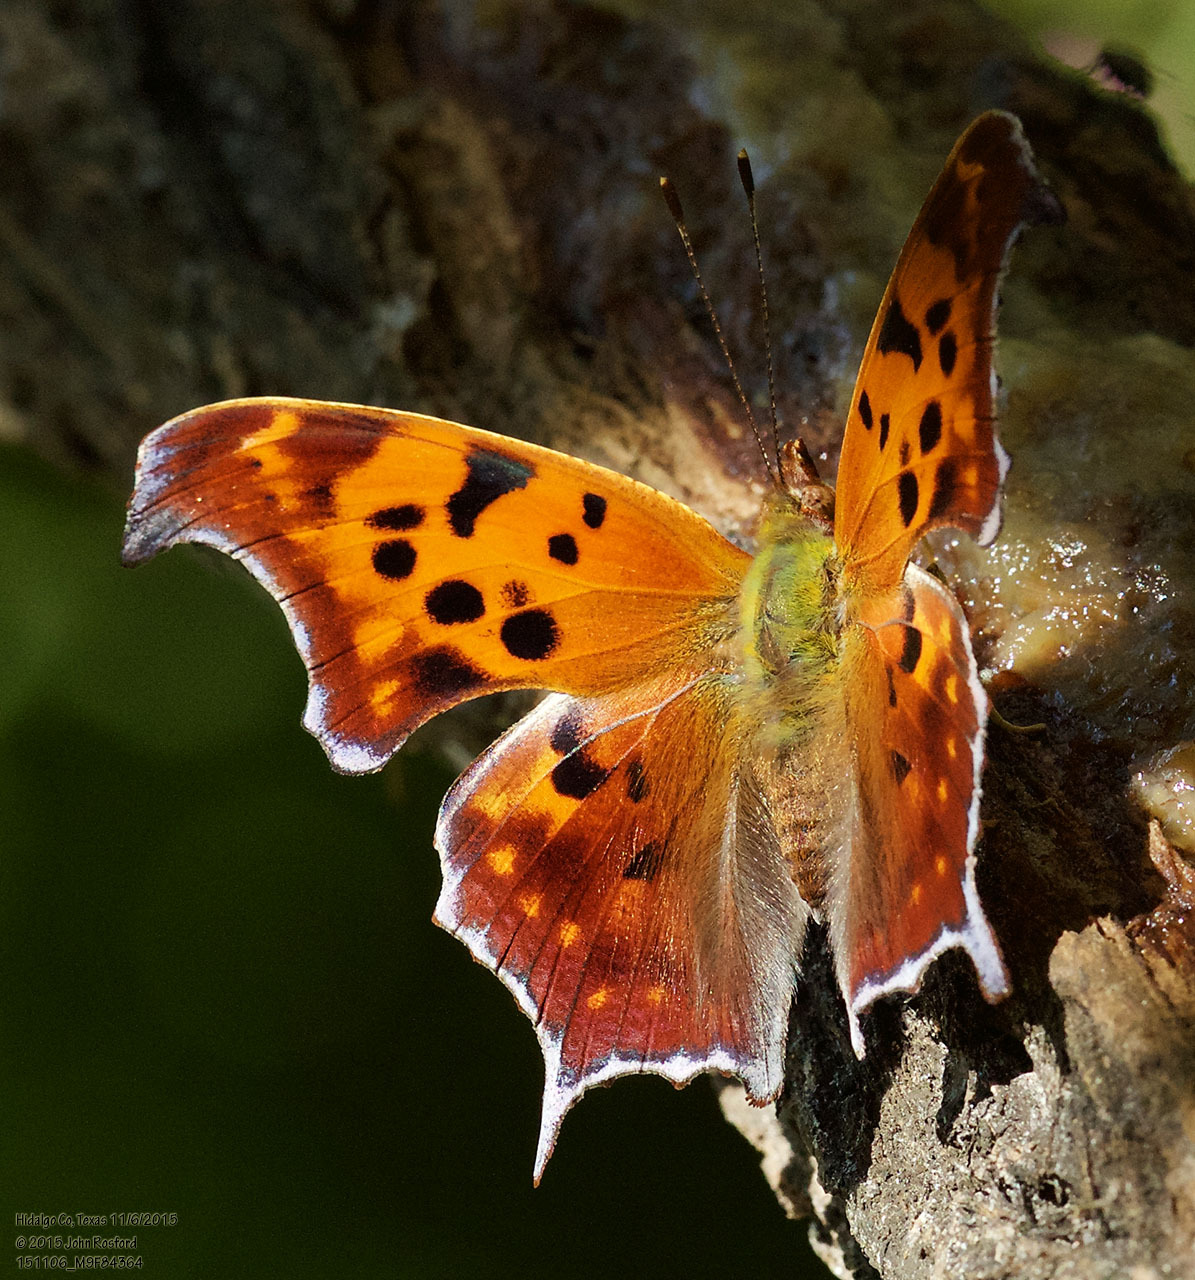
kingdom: Animalia
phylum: Arthropoda
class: Insecta
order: Lepidoptera
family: Nymphalidae
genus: Polygonia
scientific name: Polygonia interrogationis
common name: Question mark
